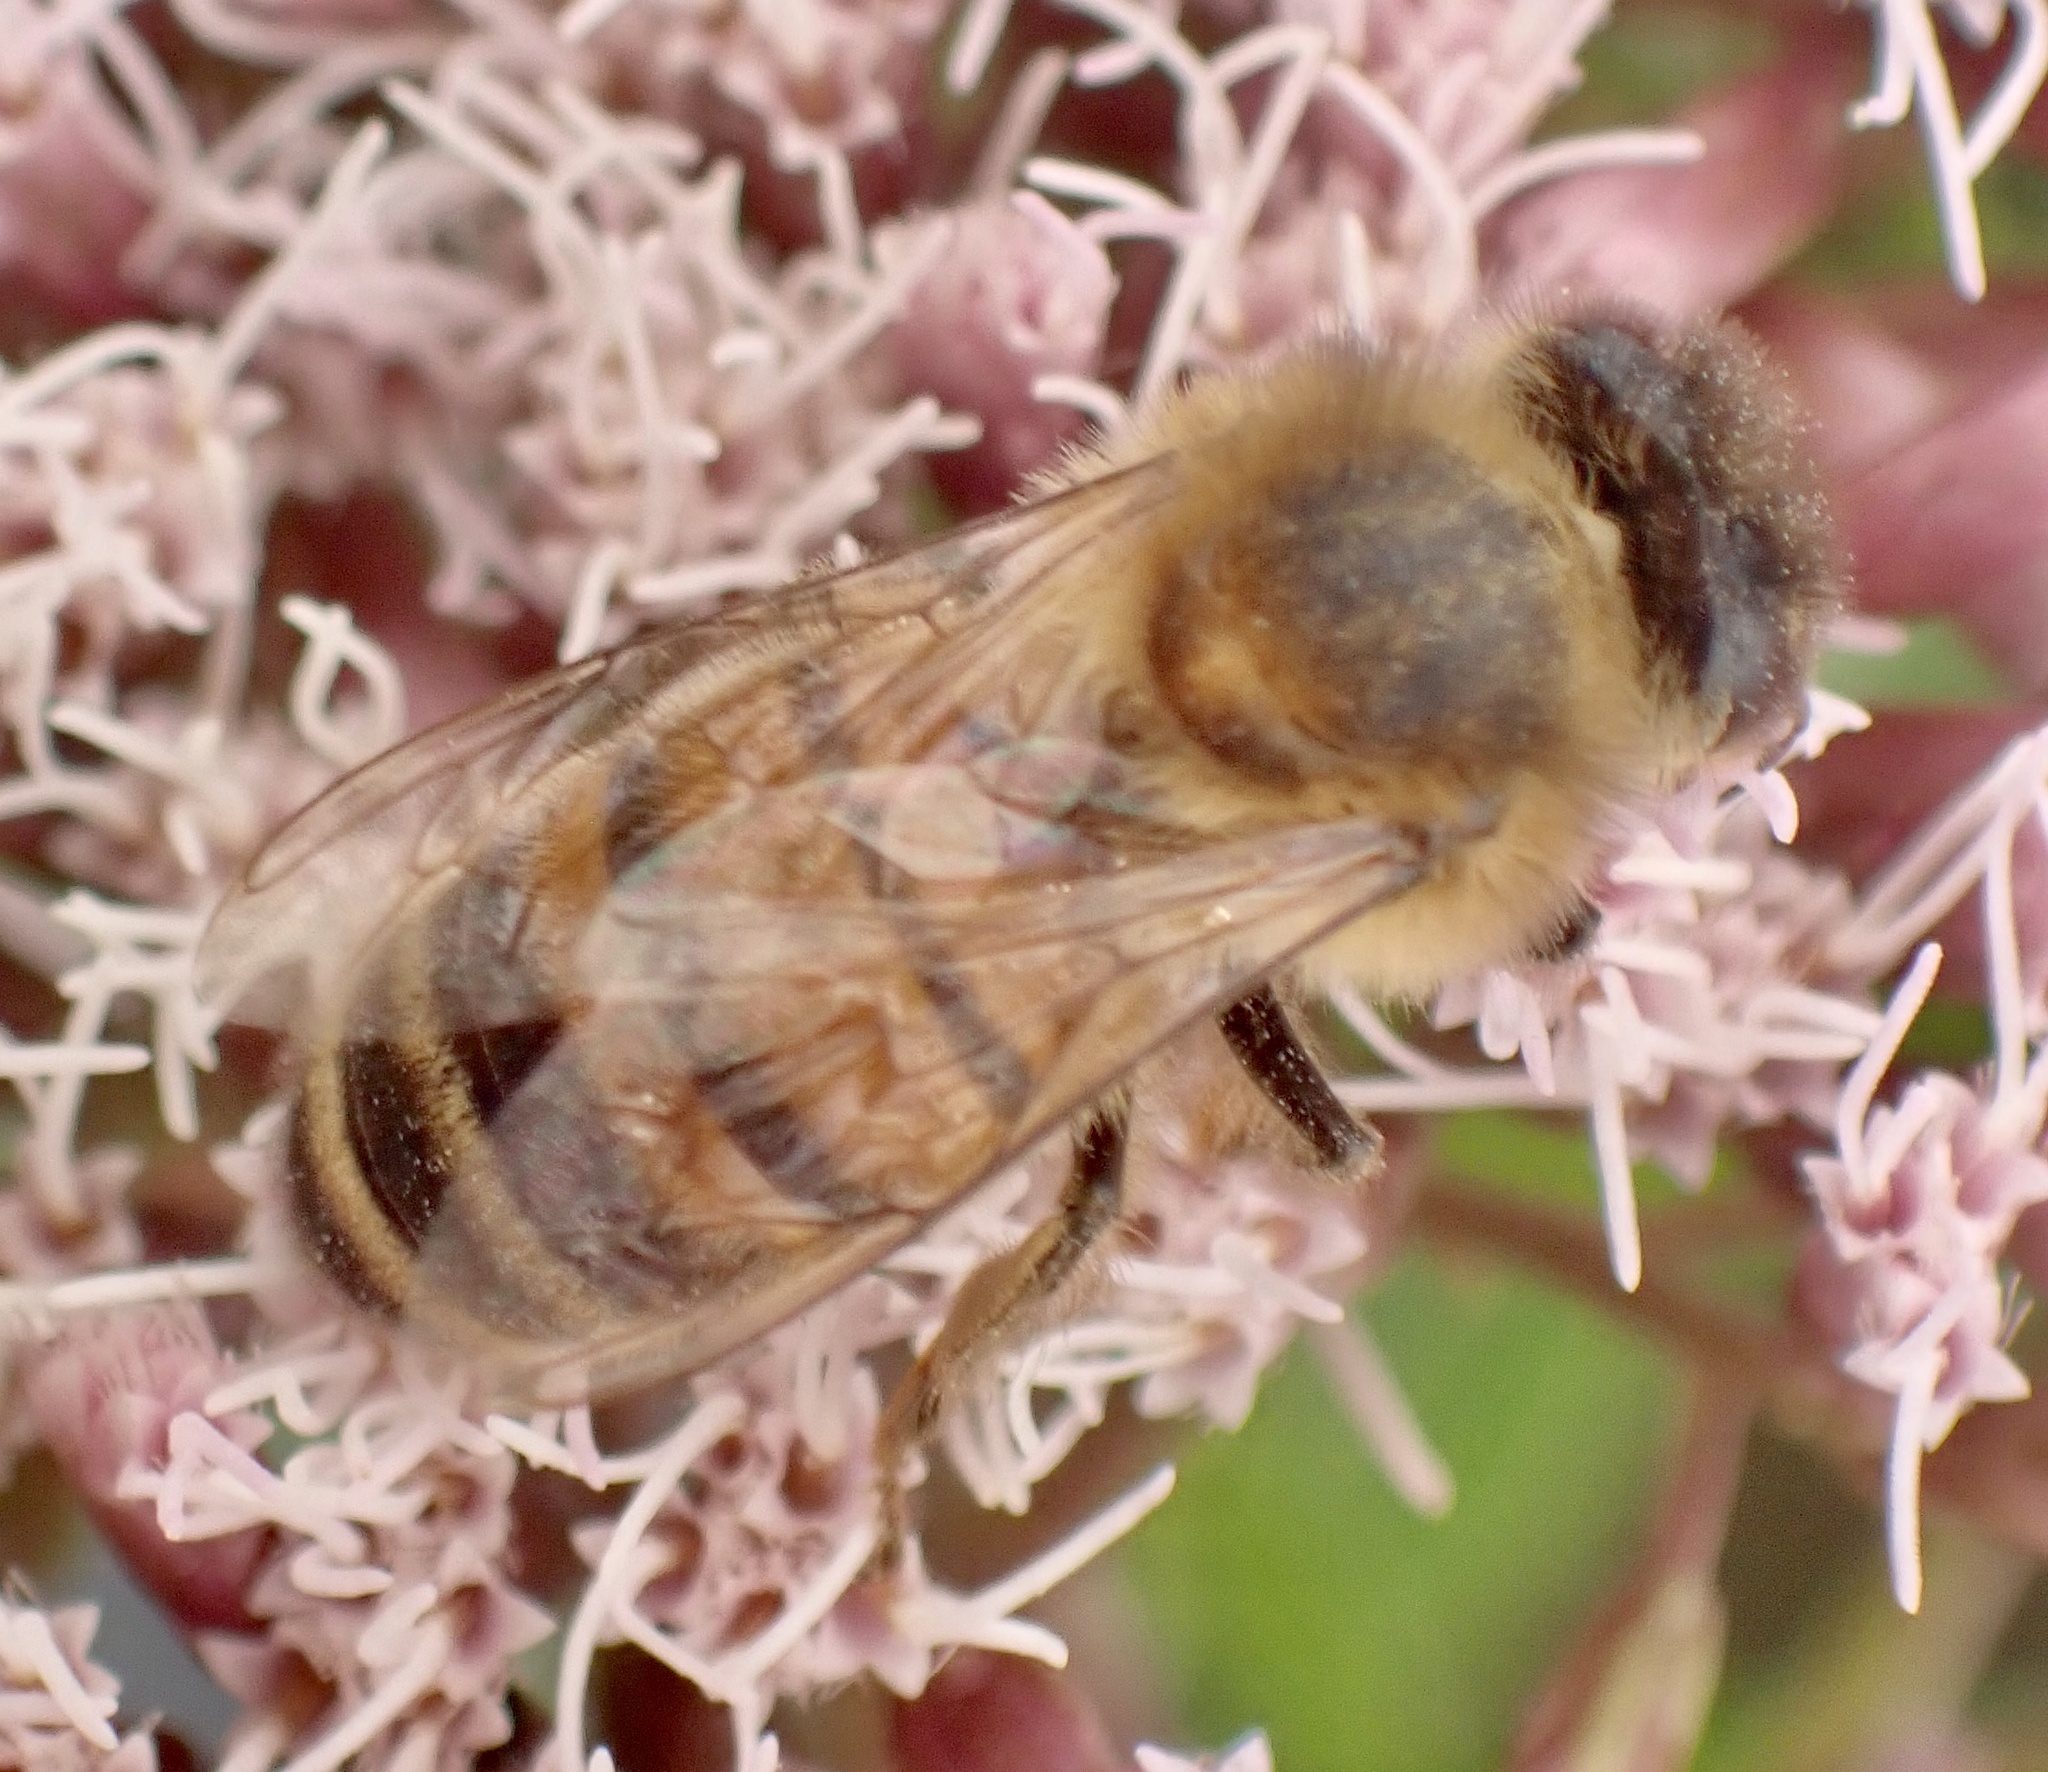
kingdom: Animalia
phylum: Arthropoda
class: Insecta
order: Hymenoptera
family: Apidae
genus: Apis
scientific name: Apis mellifera
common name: Honey bee
